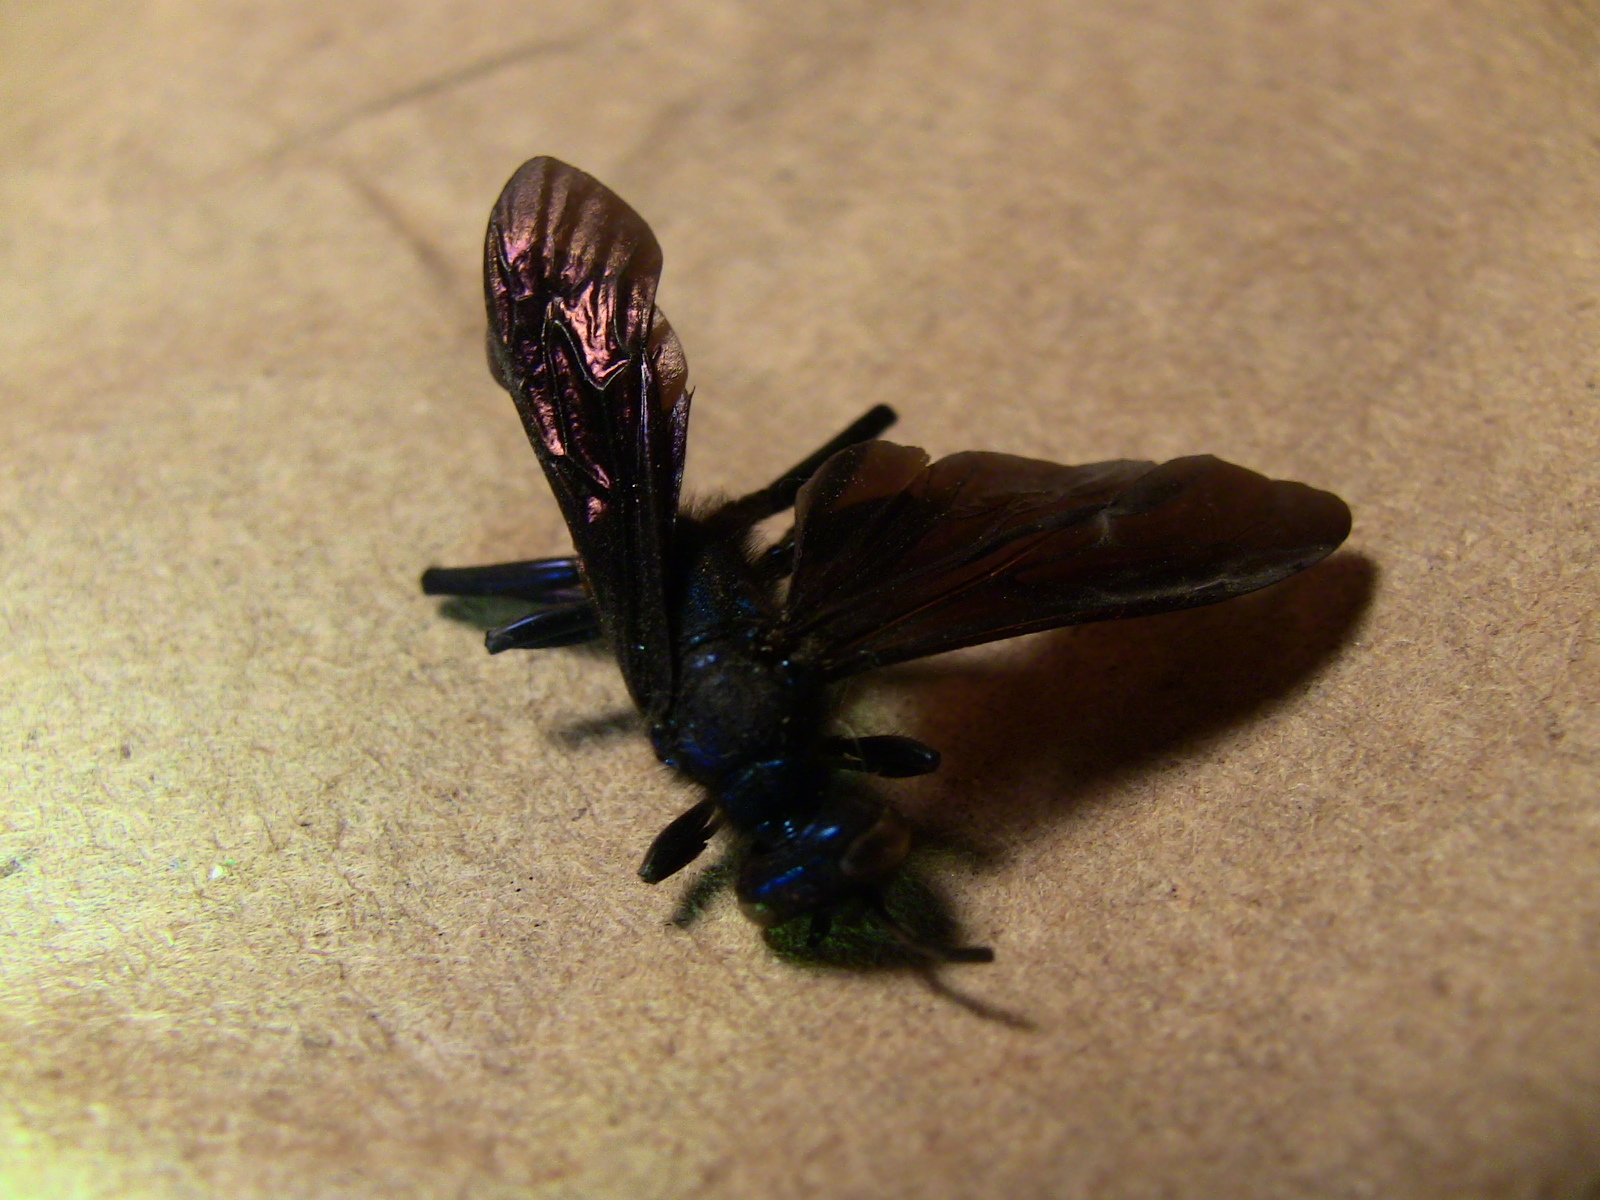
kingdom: Animalia
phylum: Arthropoda
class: Insecta
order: Hymenoptera
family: Sphecidae
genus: Chalybion
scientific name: Chalybion californicum
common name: Mud dauber
